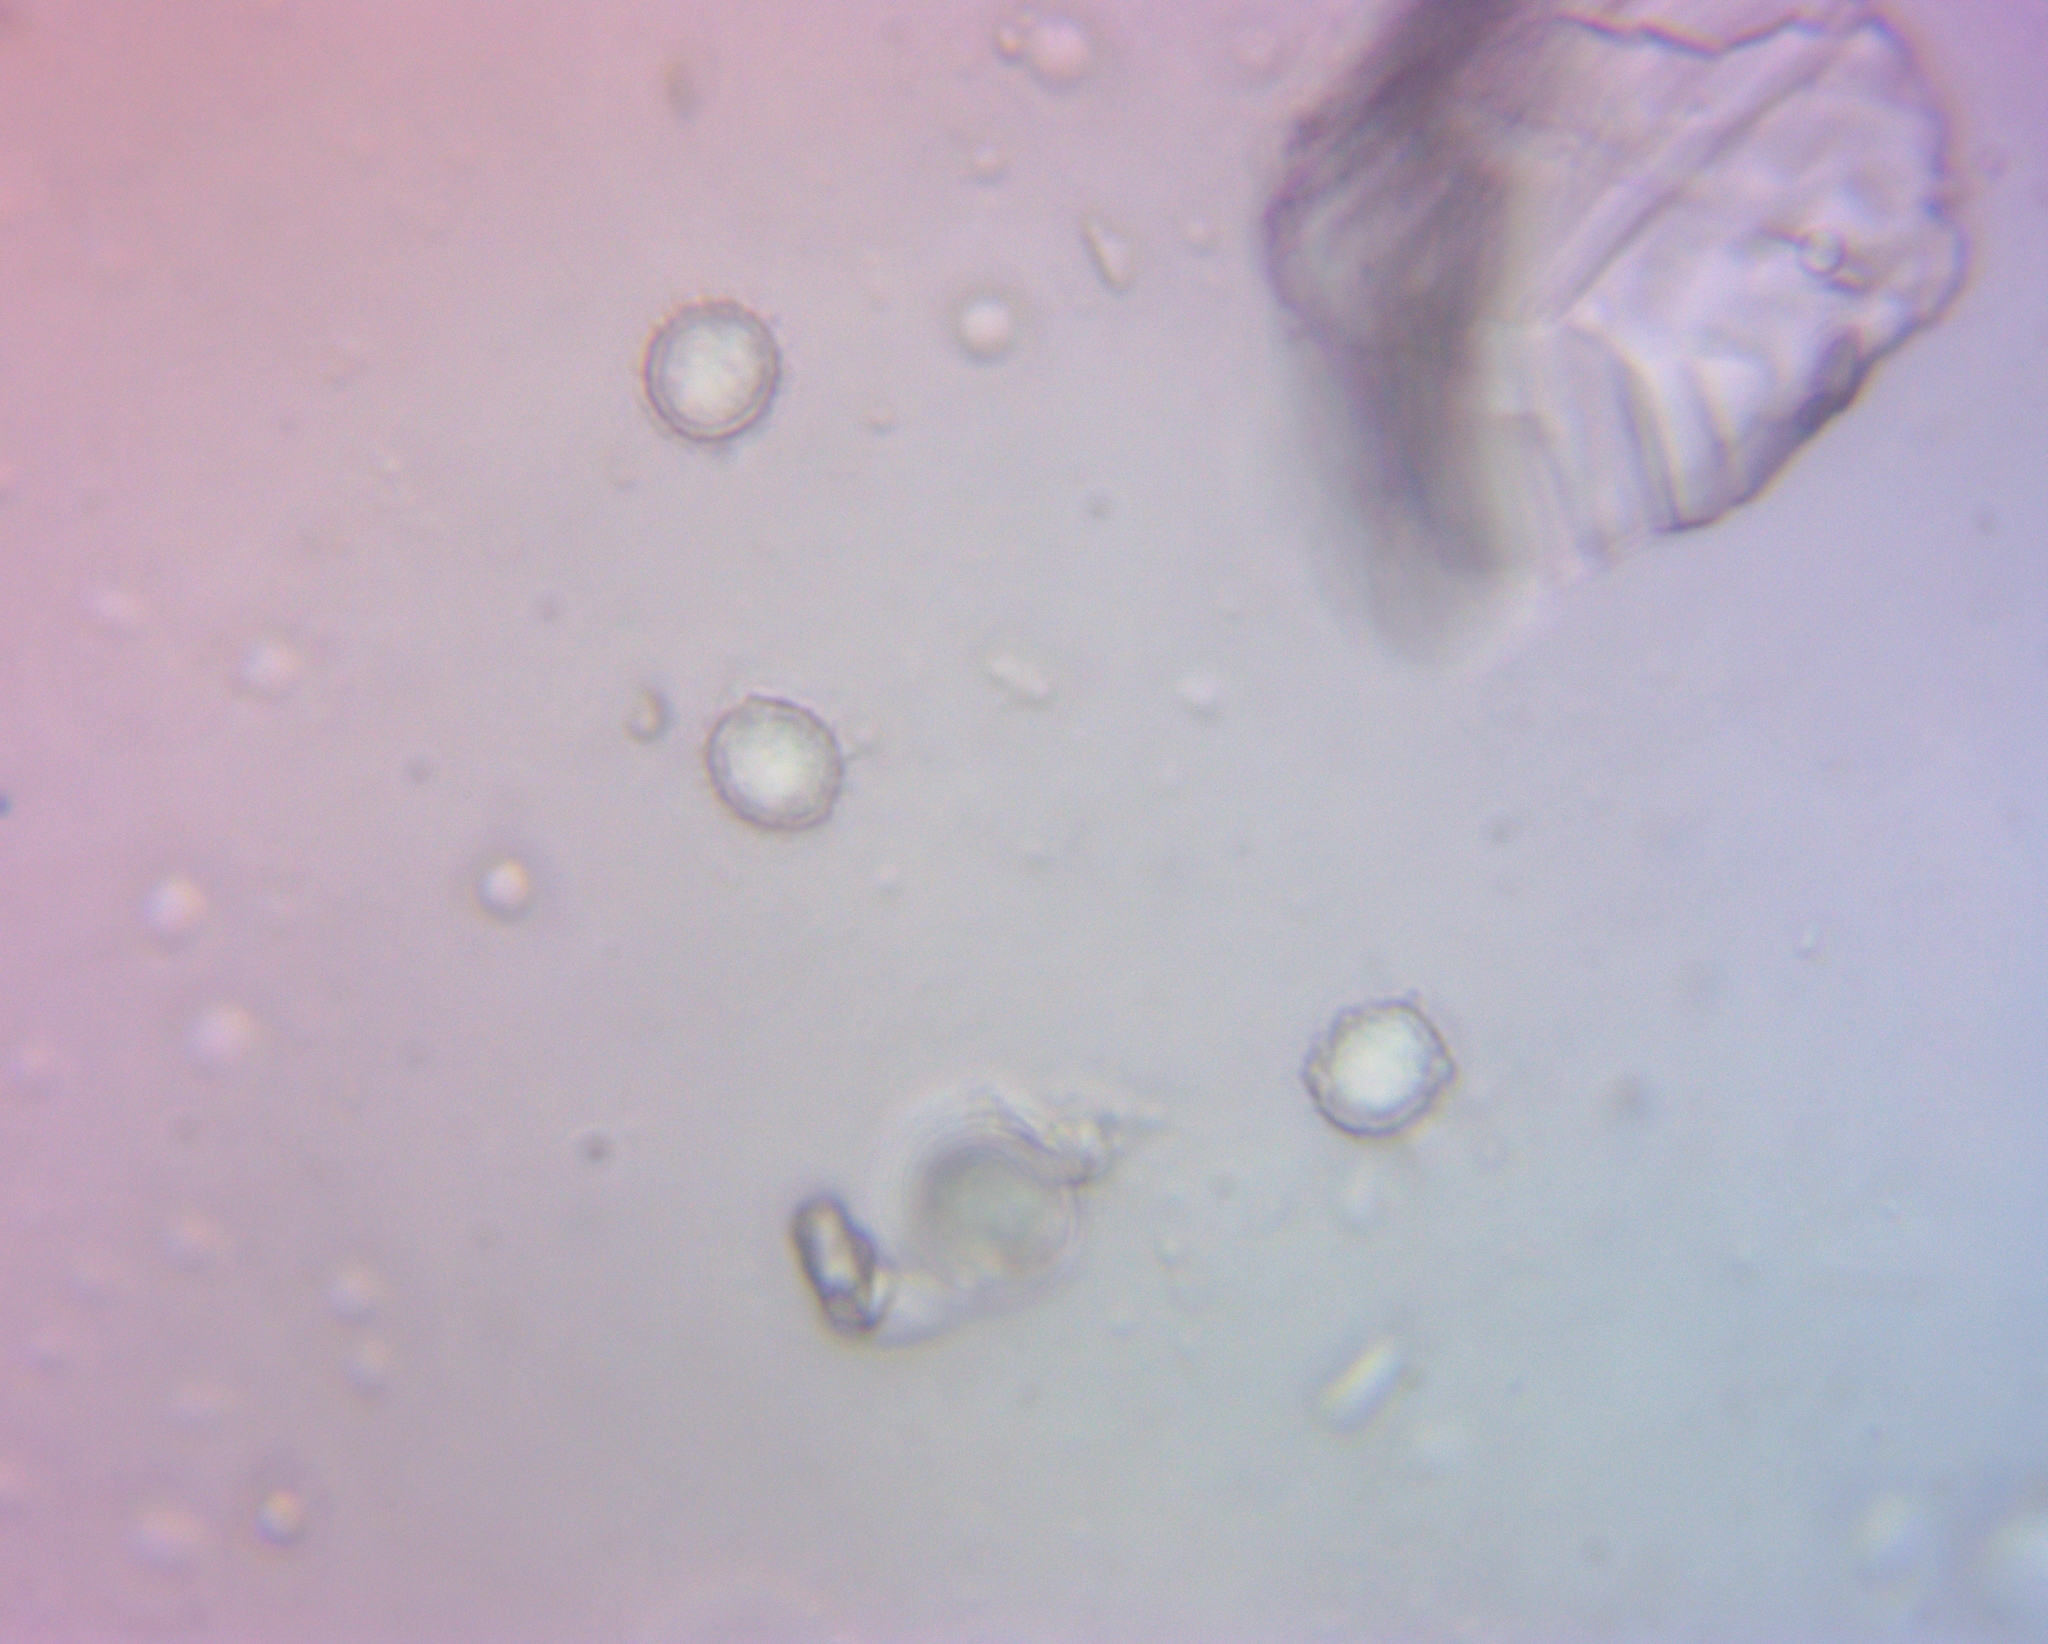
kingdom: Fungi
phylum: Basidiomycota
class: Agaricomycetes
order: Russulales
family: Russulaceae
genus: Russula
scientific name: Russula ochroleucoides
